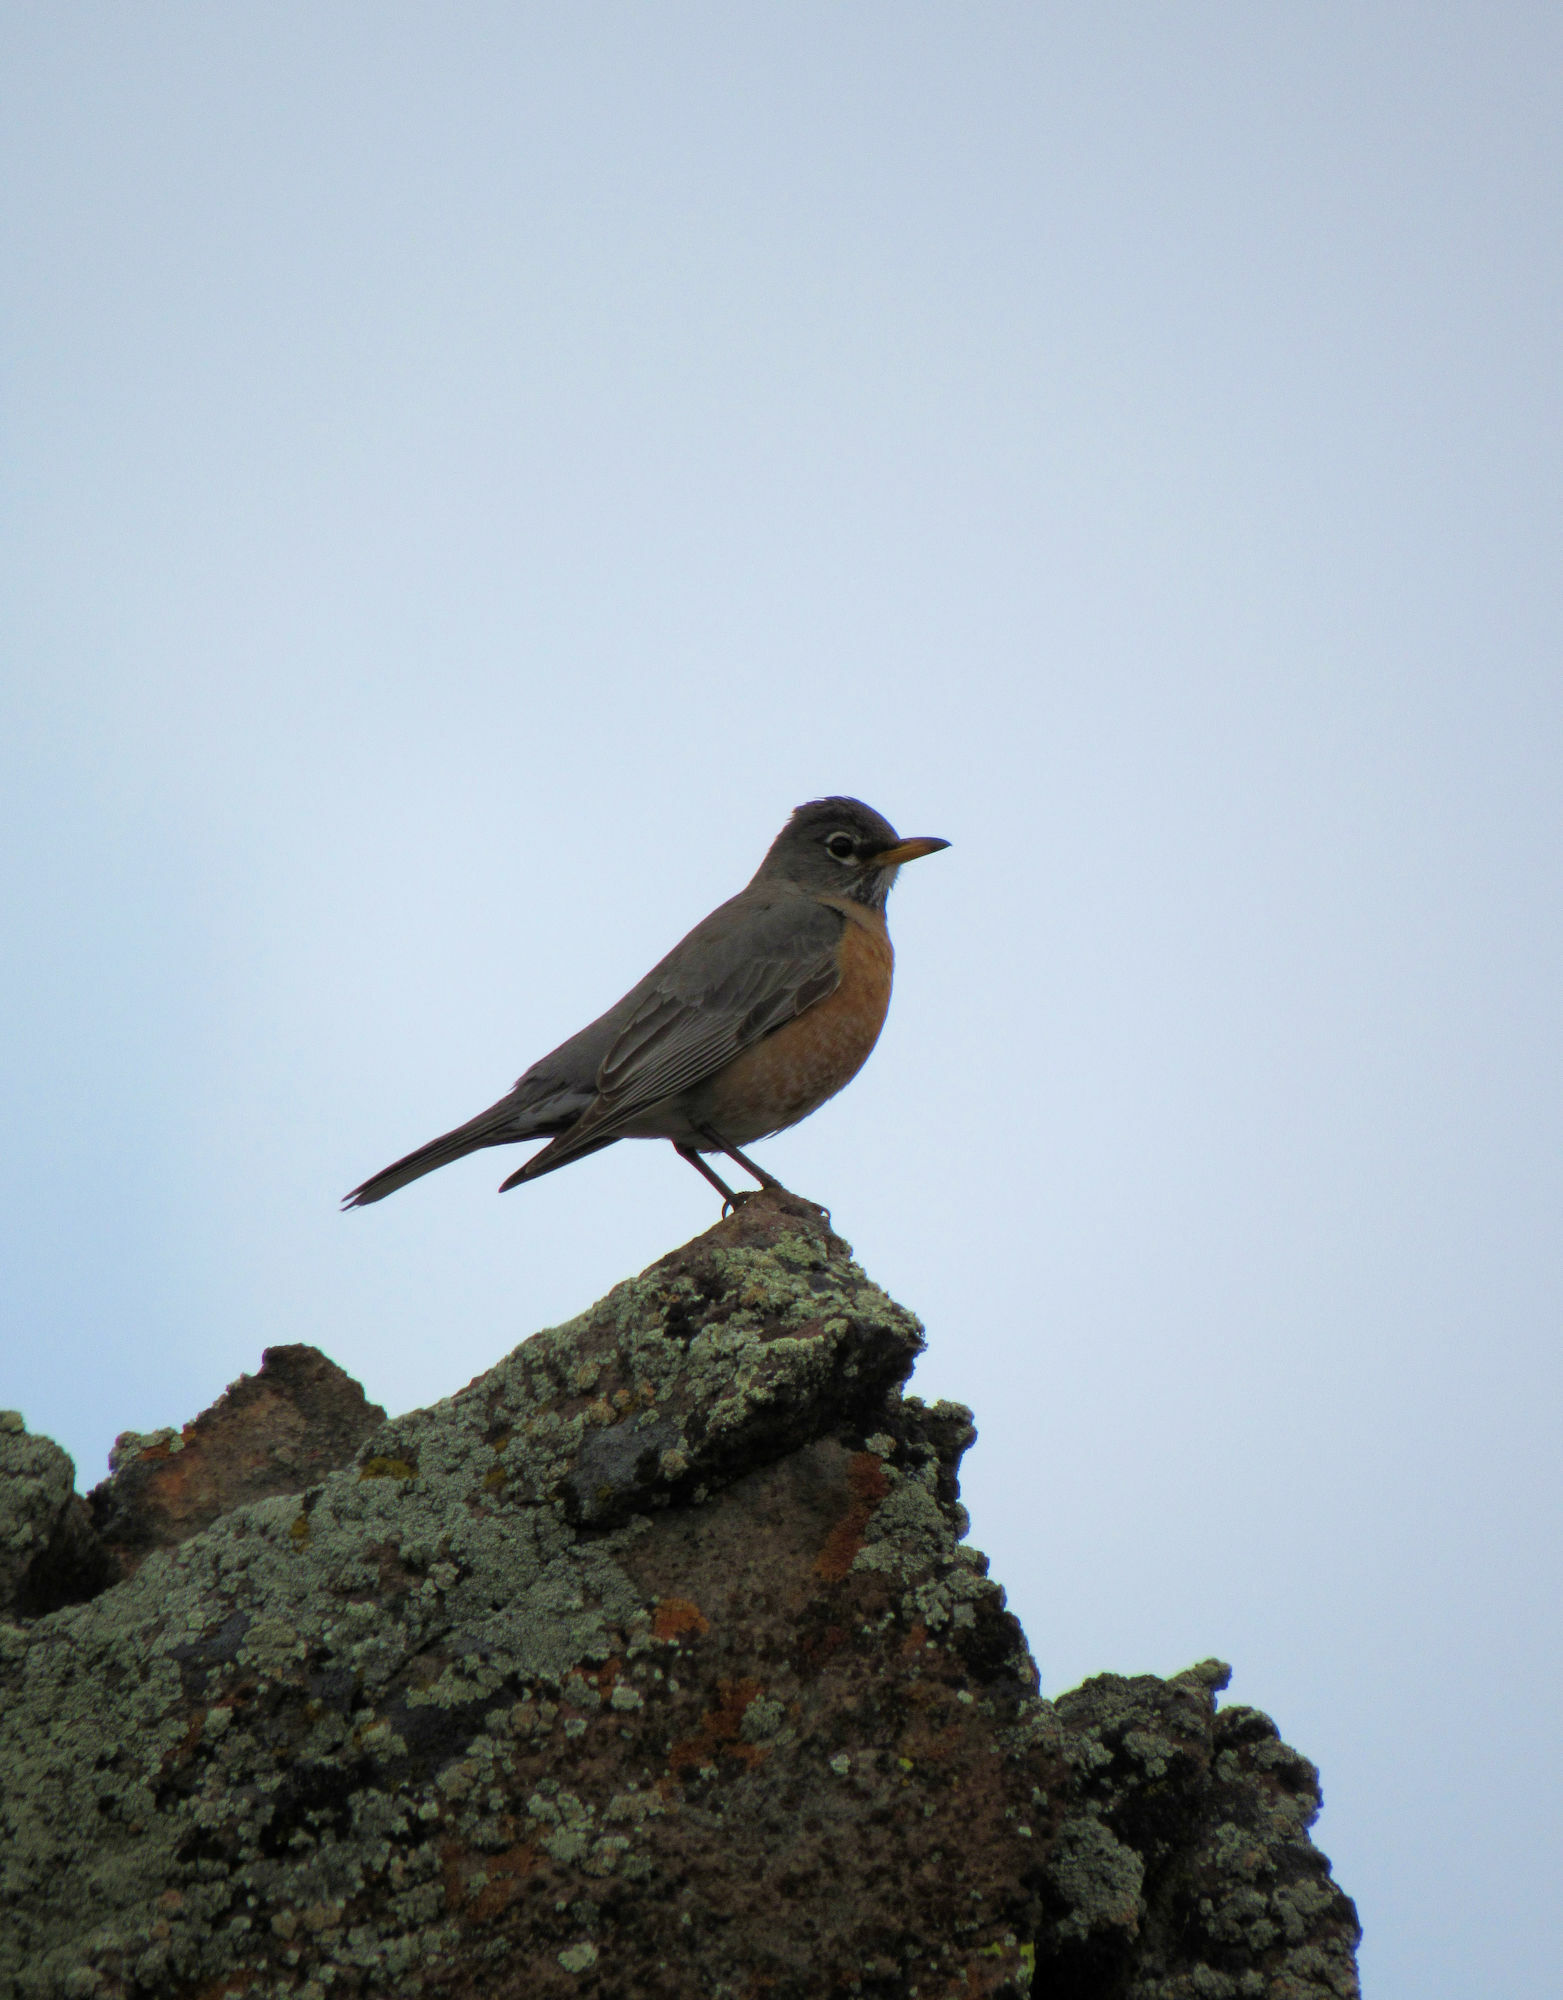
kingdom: Animalia
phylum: Chordata
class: Aves
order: Passeriformes
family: Turdidae
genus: Turdus
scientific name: Turdus migratorius
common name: American robin
